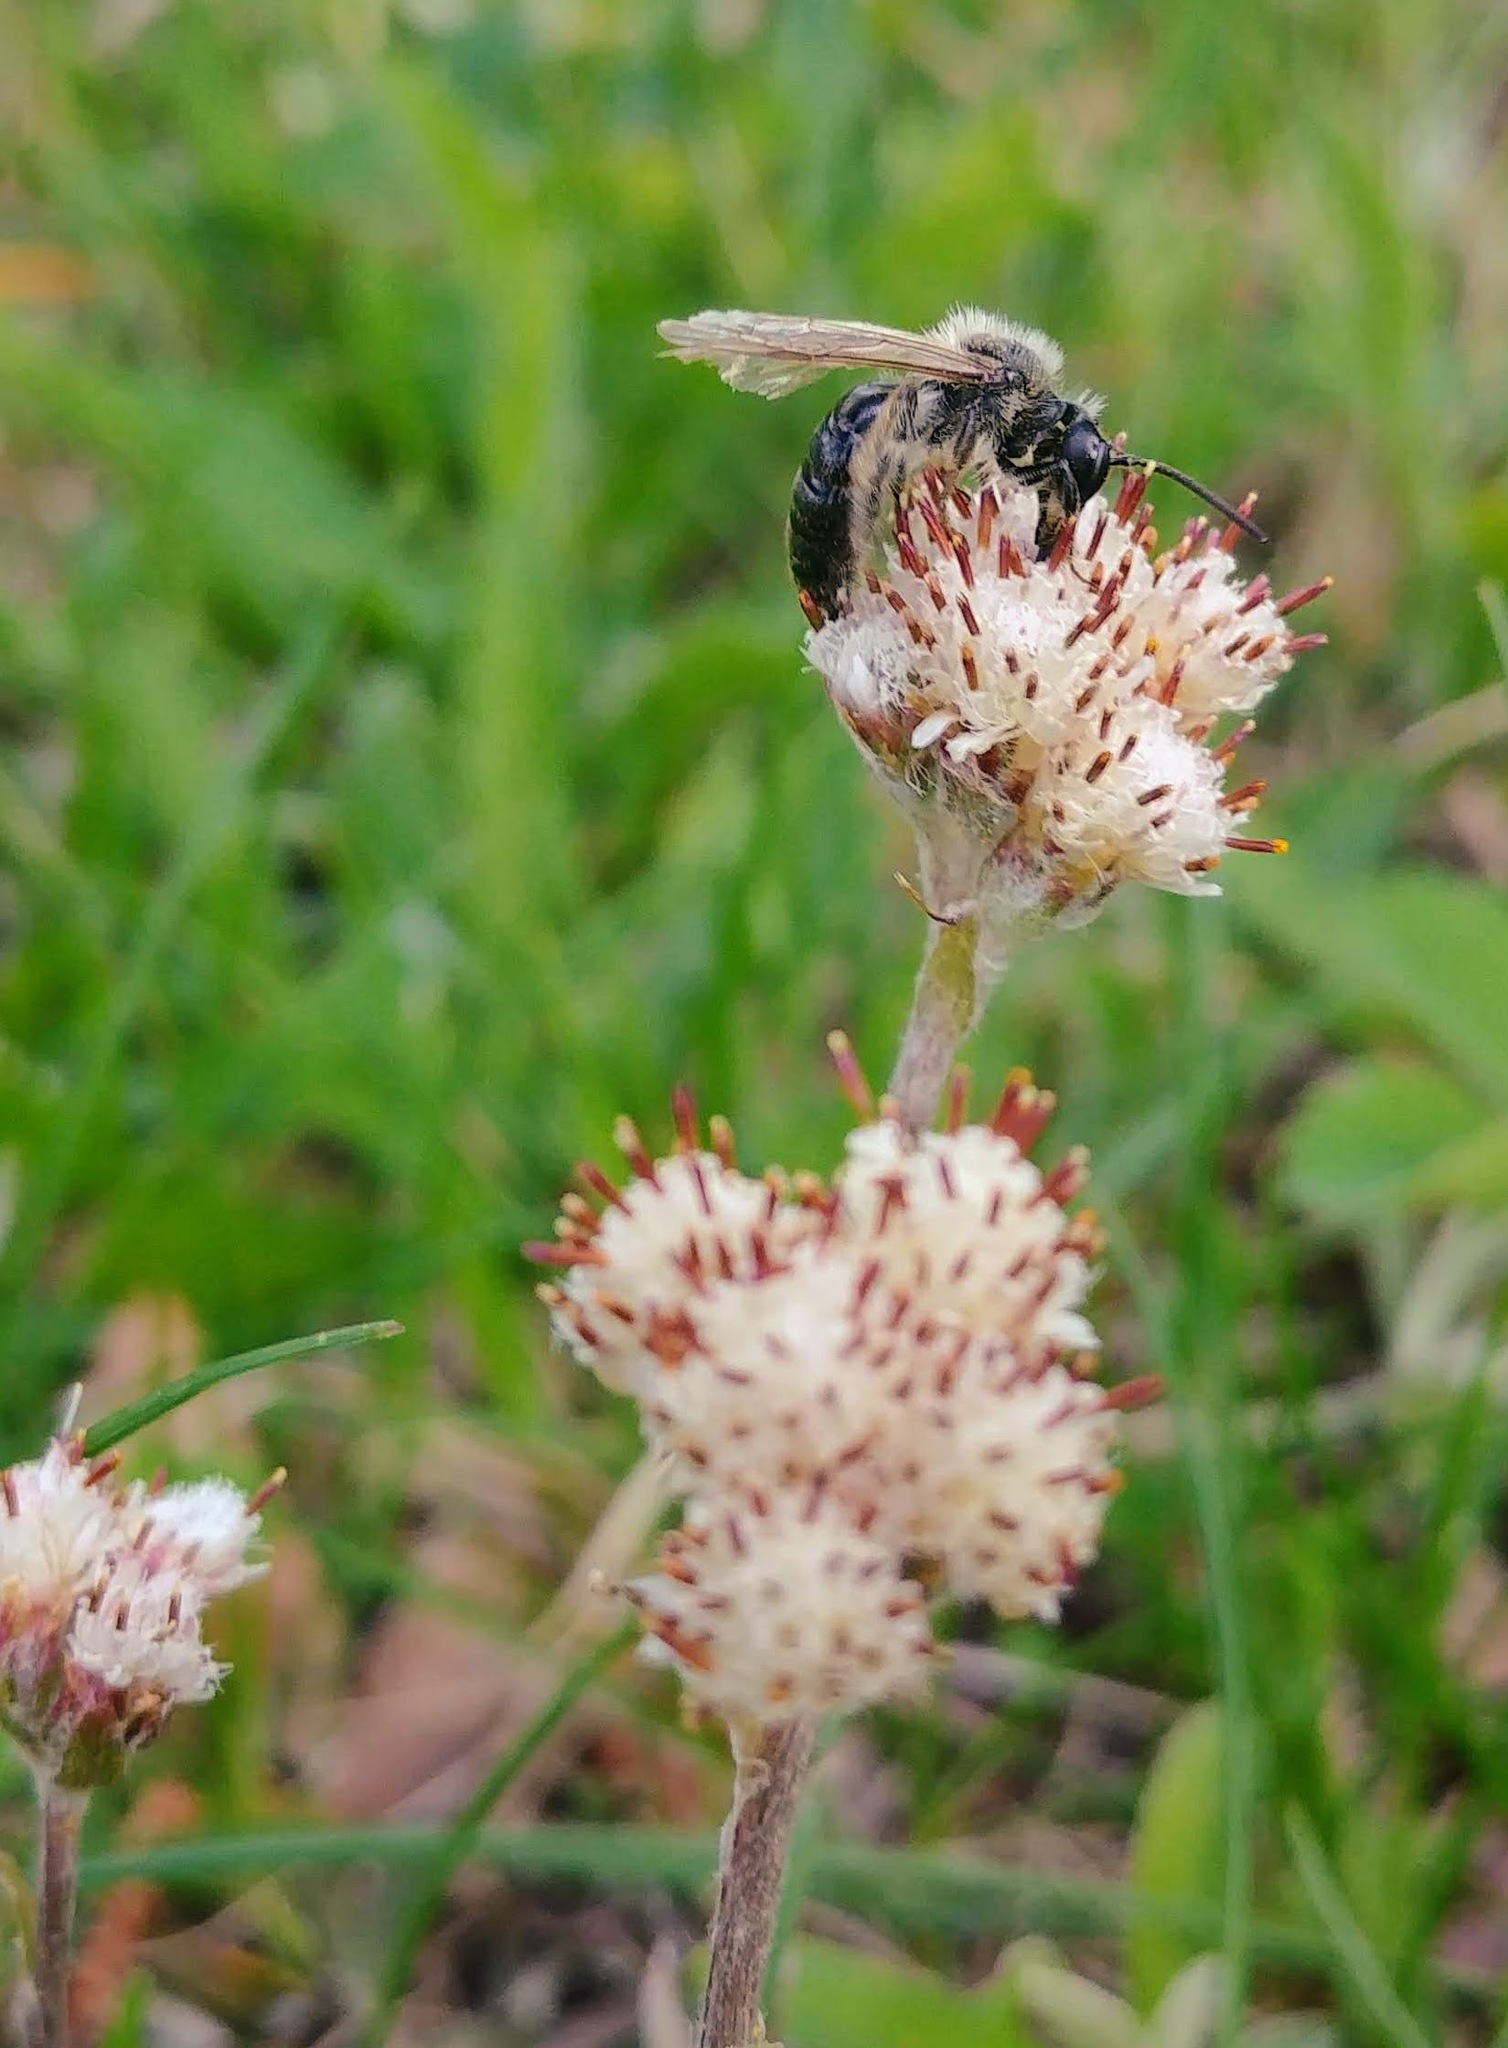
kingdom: Plantae
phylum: Tracheophyta
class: Magnoliopsida
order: Asterales
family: Asteraceae
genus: Antennaria
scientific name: Antennaria neglecta
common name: Field pussytoes
